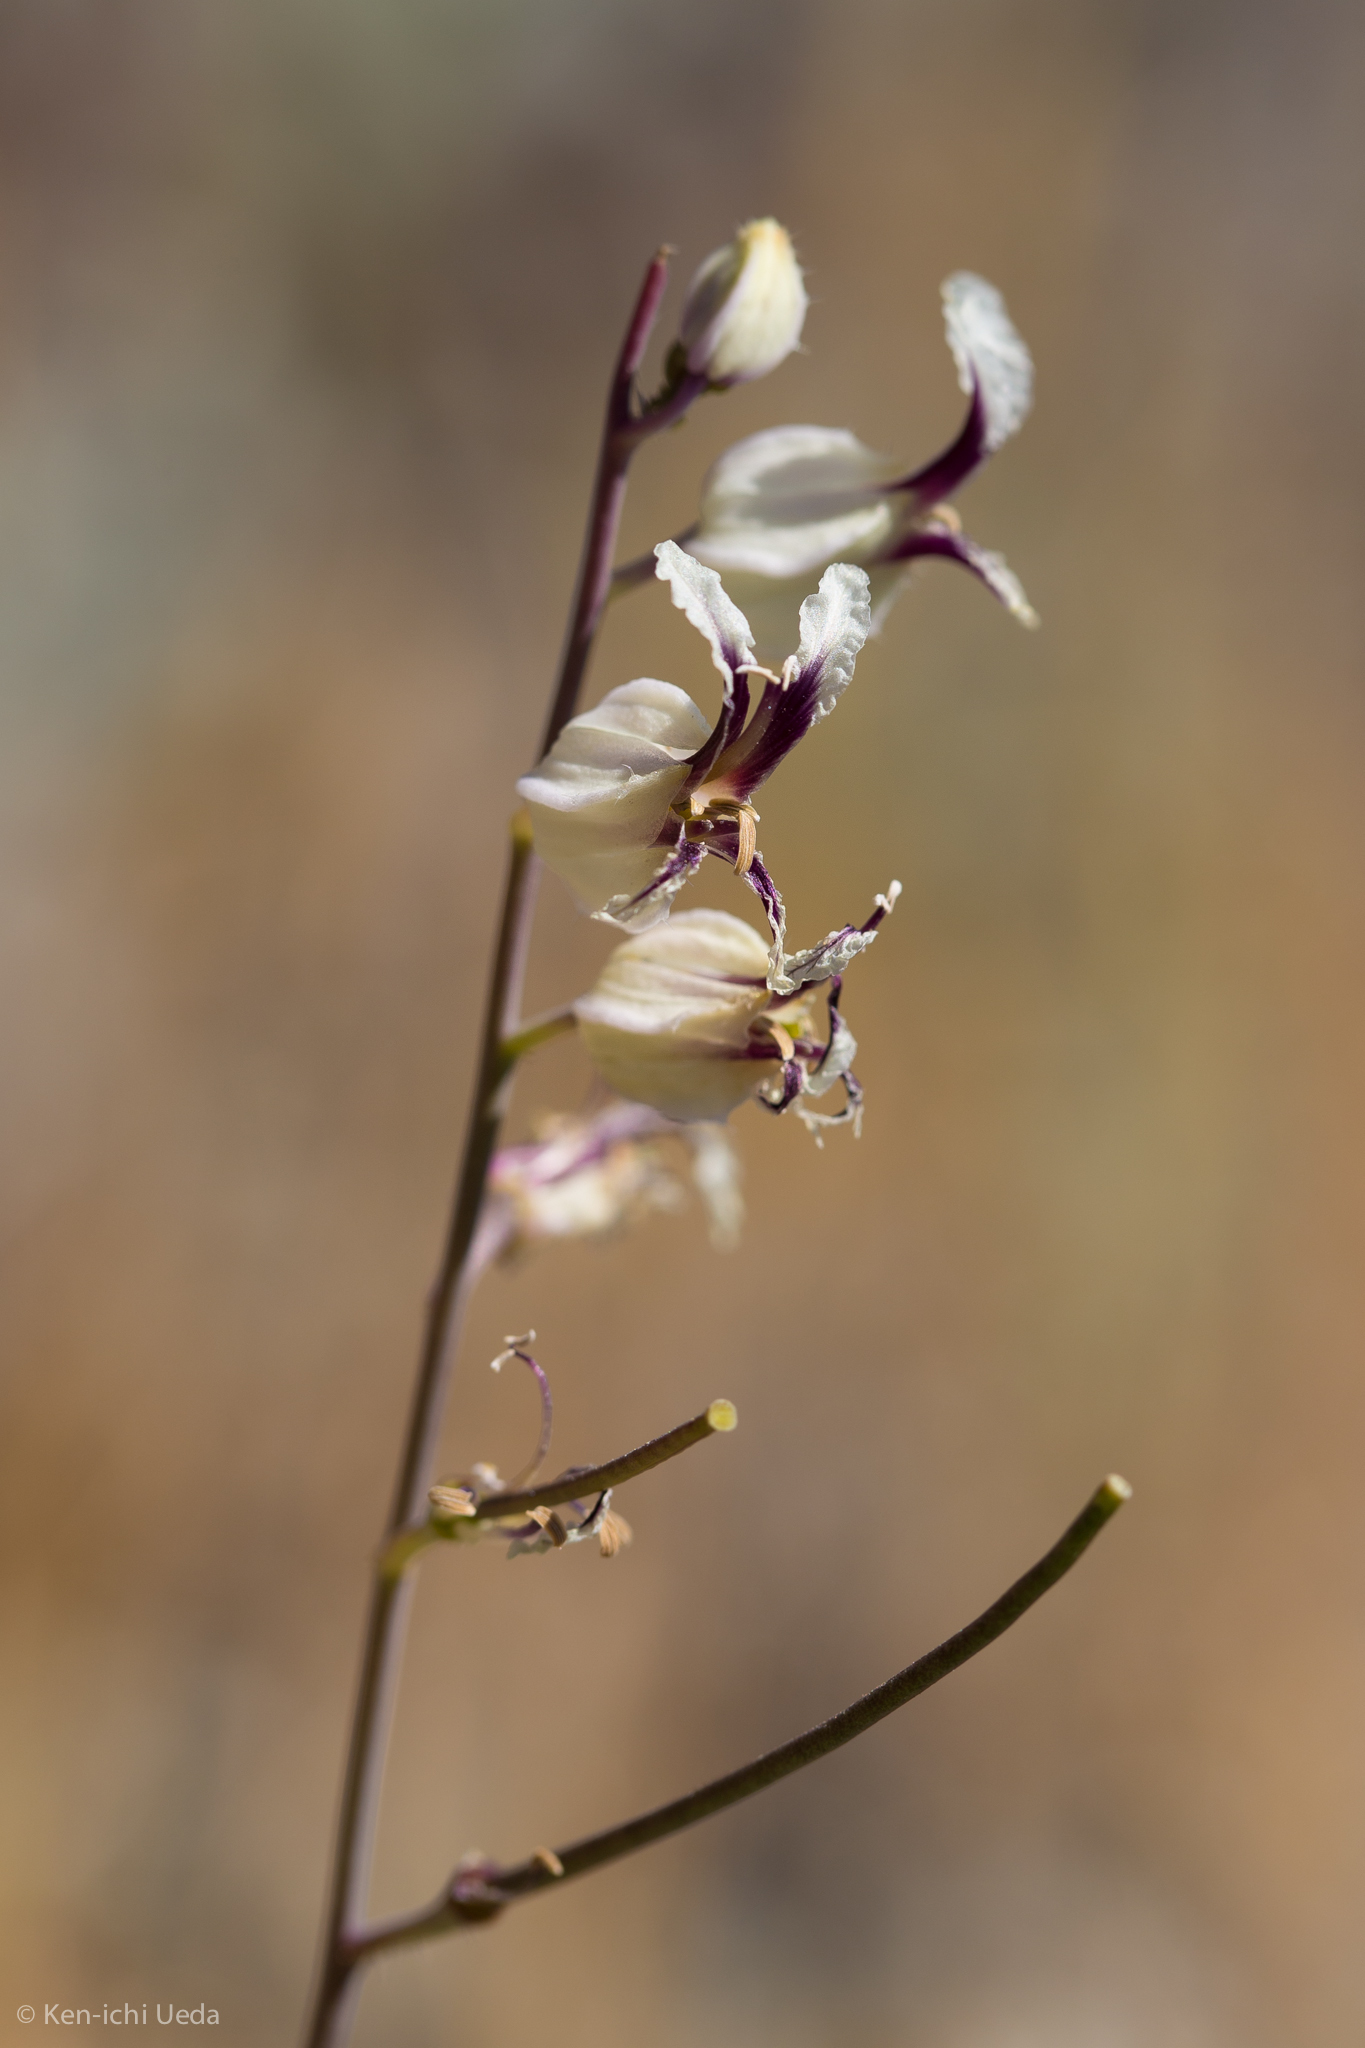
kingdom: Plantae
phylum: Tracheophyta
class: Magnoliopsida
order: Brassicales
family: Brassicaceae
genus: Streptanthus
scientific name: Streptanthus glandulosus
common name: Jewel-flower
